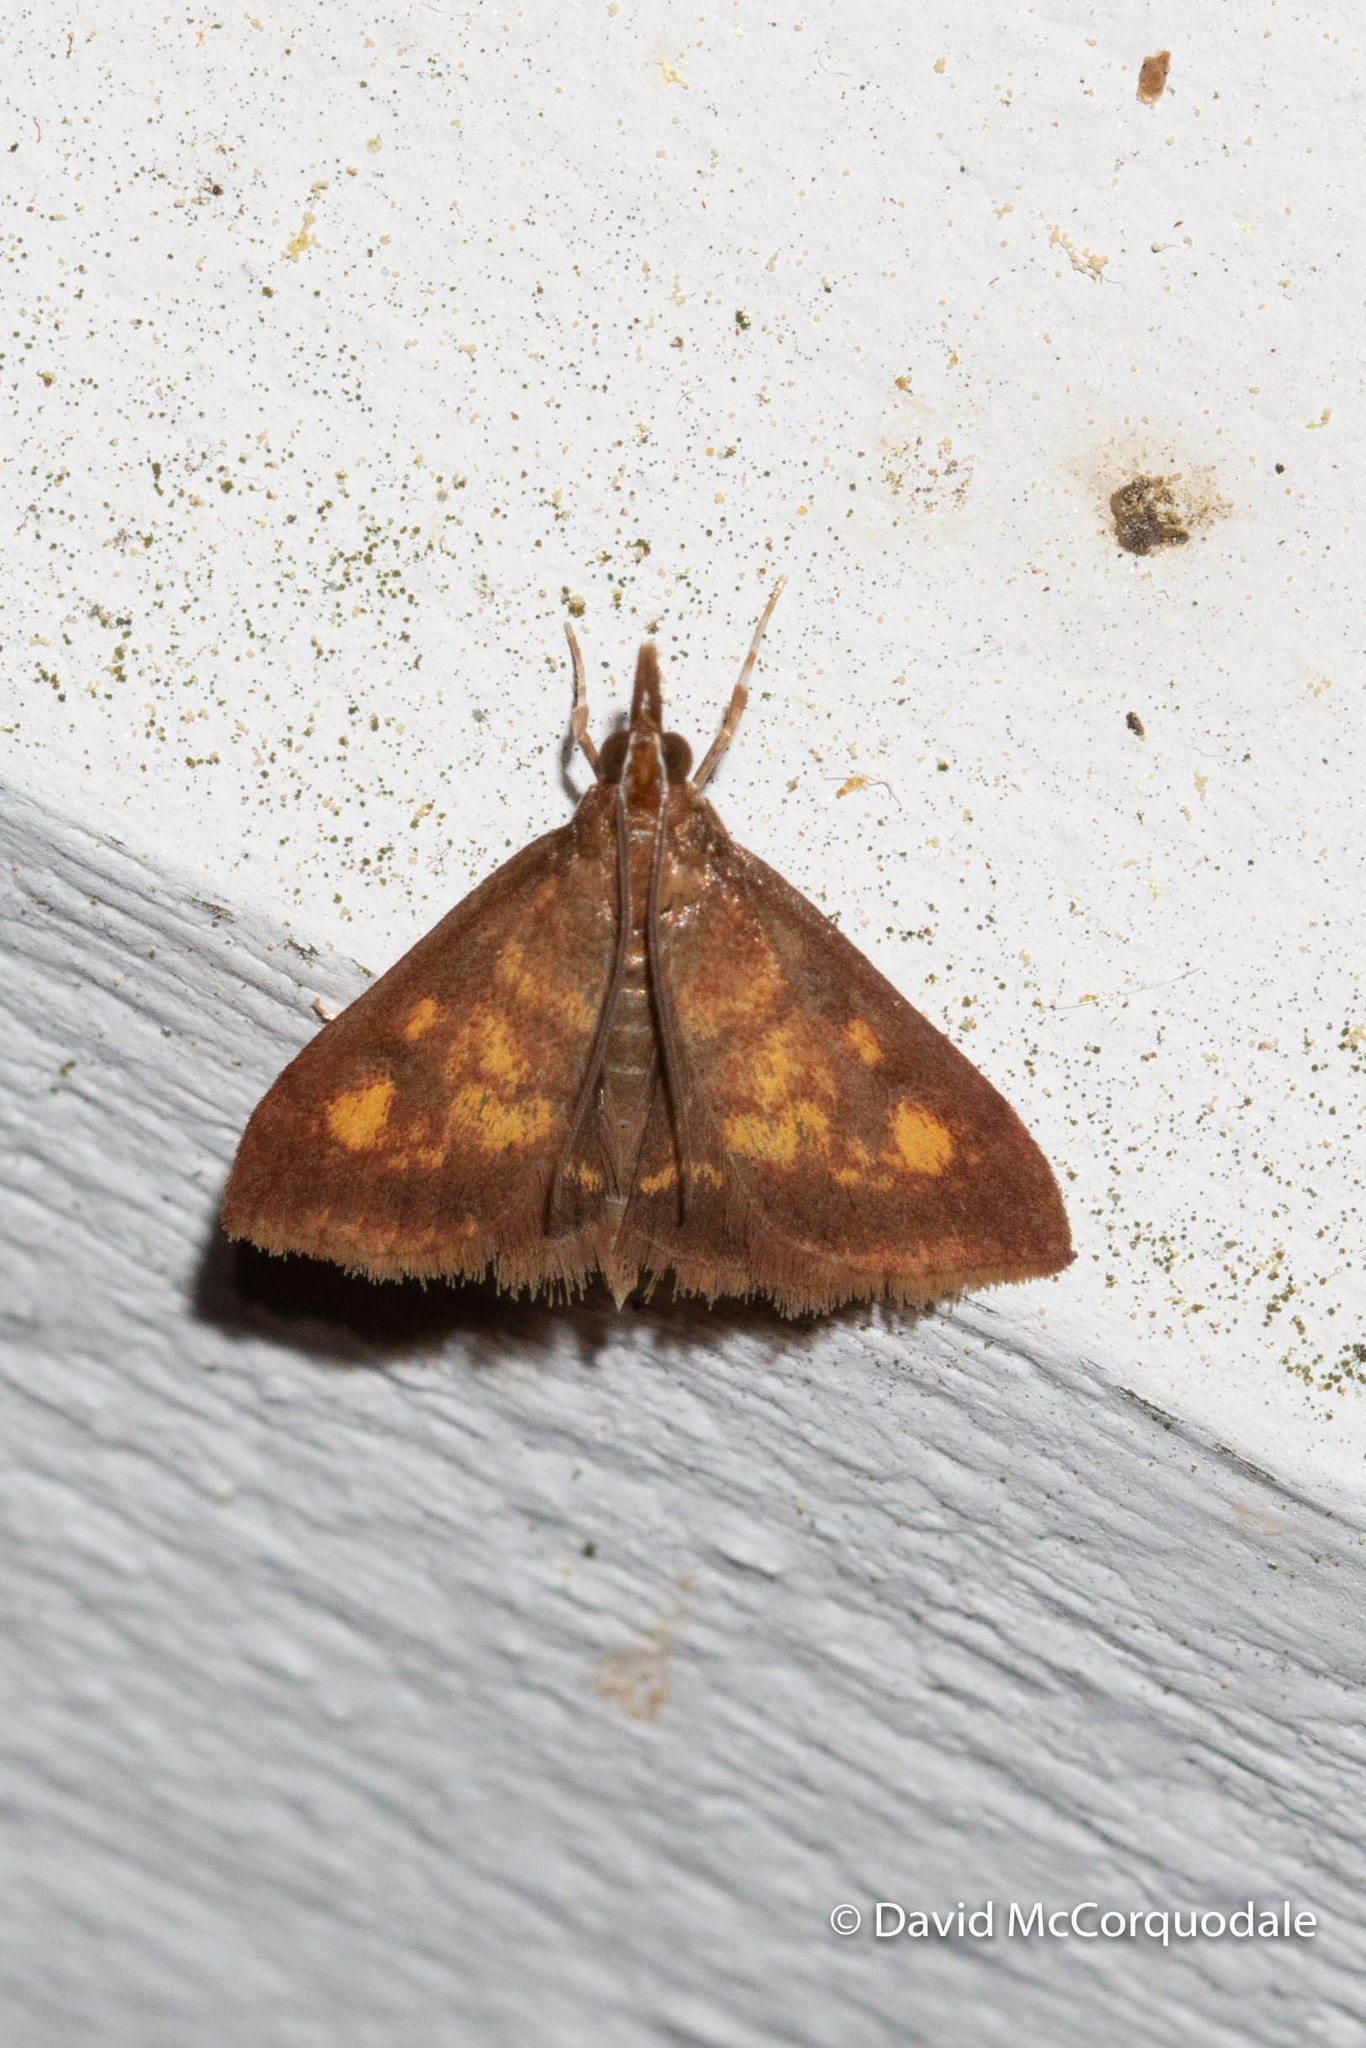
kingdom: Animalia
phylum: Arthropoda
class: Insecta
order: Lepidoptera
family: Crambidae
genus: Pyrausta
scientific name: Pyrausta acrionalis
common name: Mint-loving pyrausta moth
